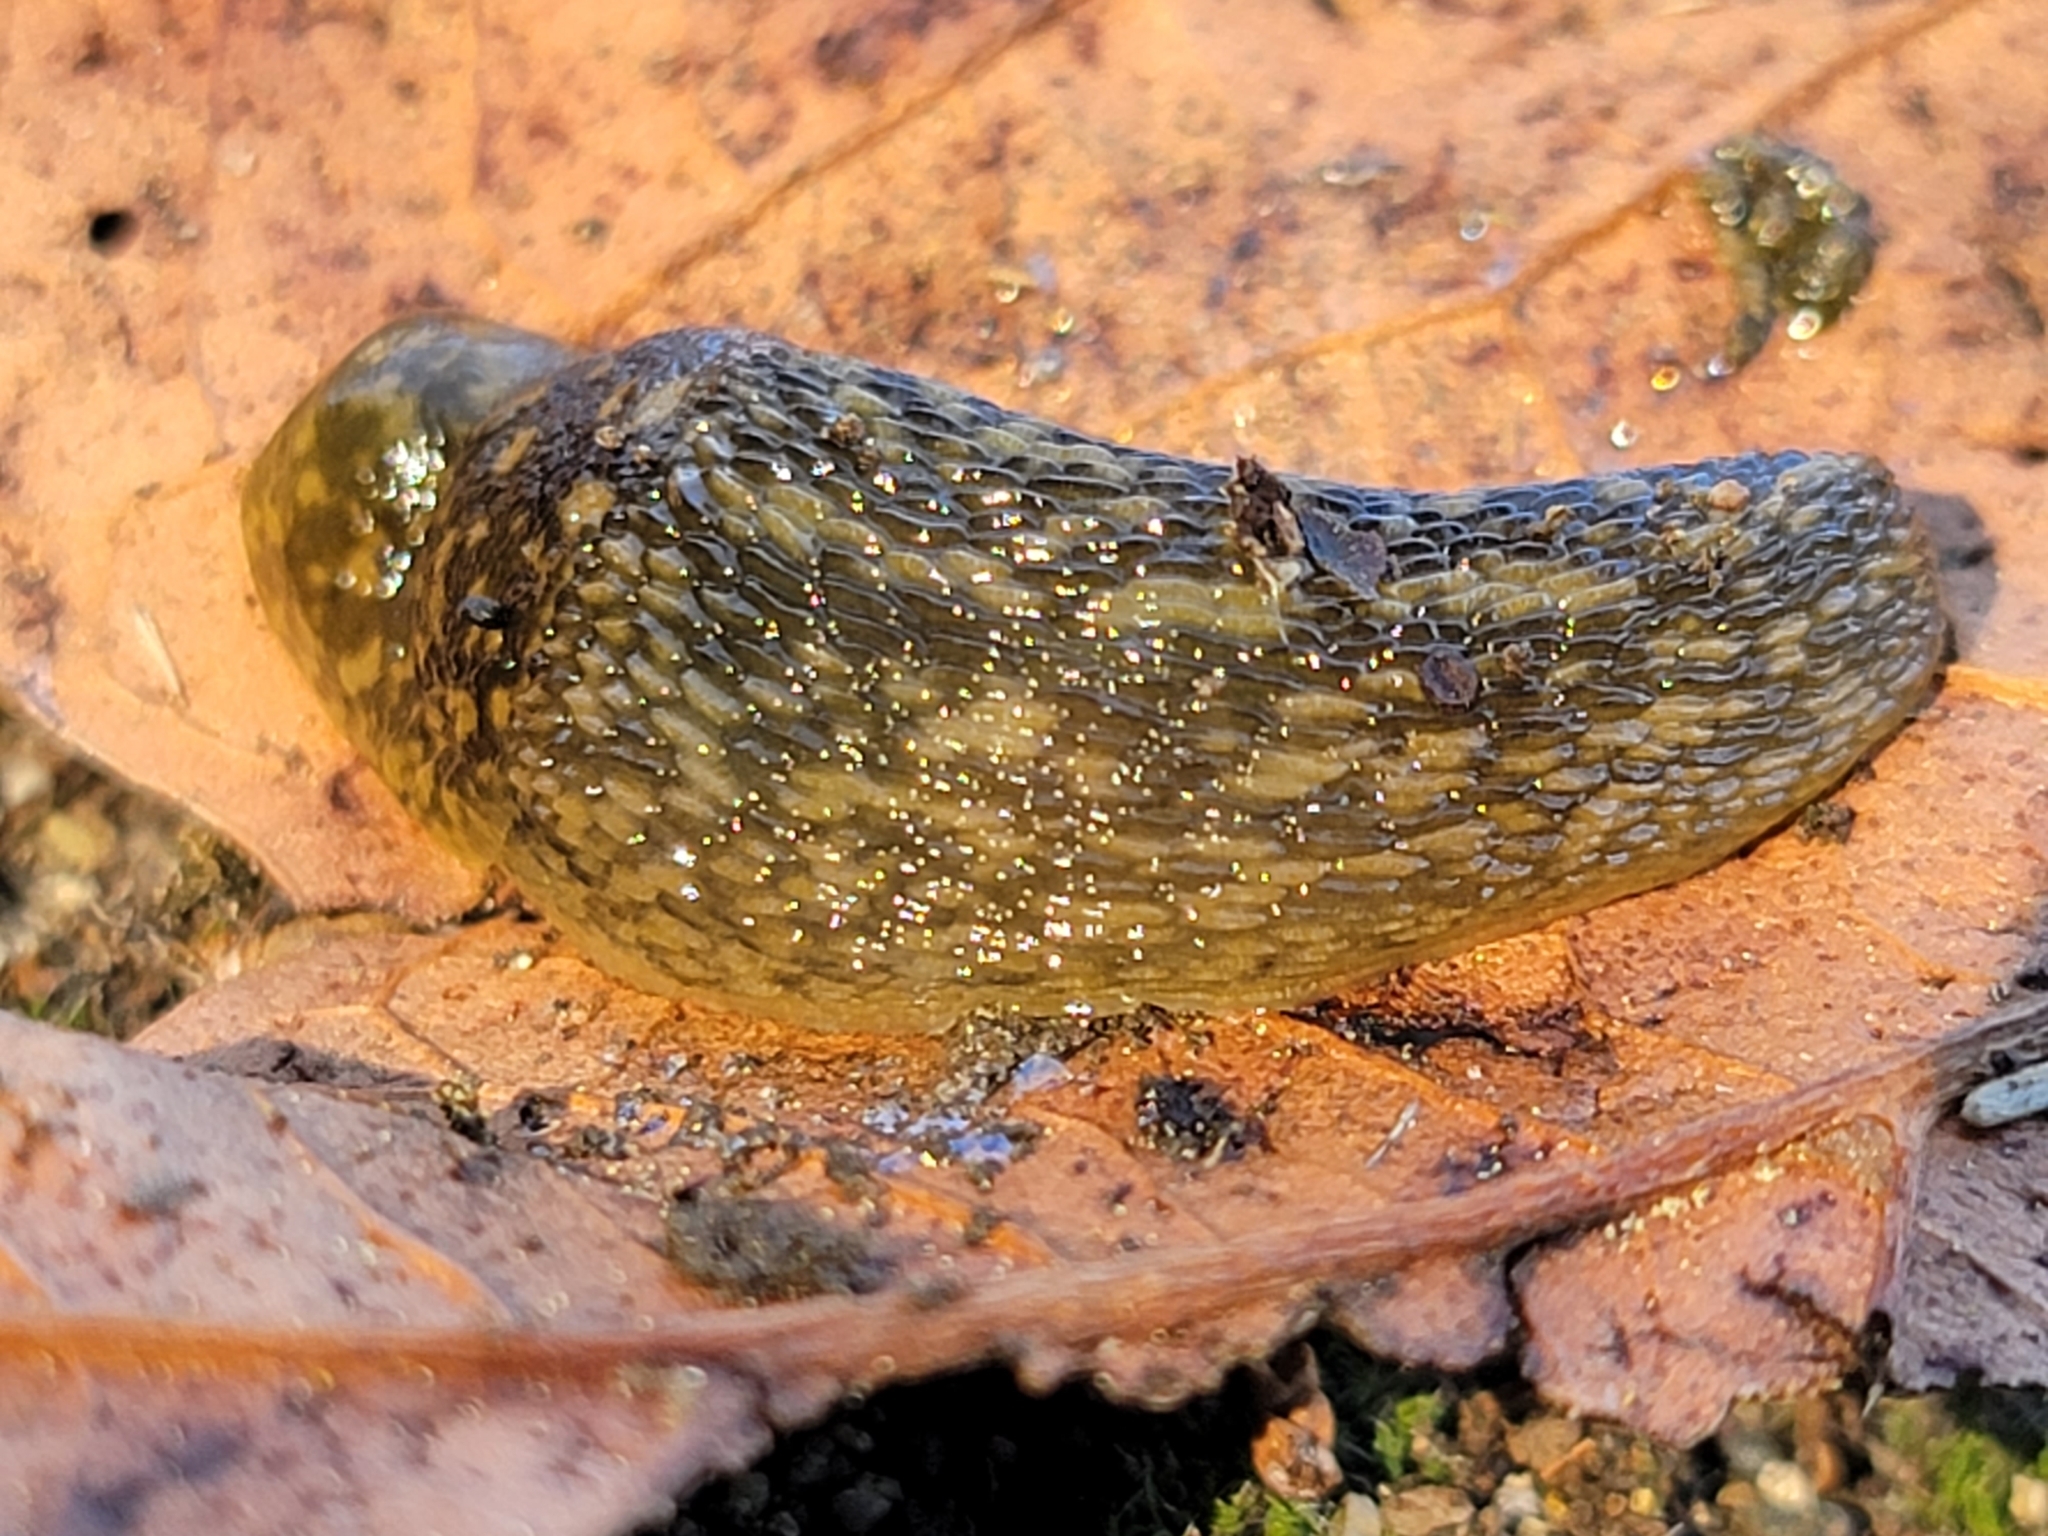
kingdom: Animalia
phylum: Mollusca
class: Gastropoda
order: Stylommatophora
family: Limacidae
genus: Limacus
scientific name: Limacus flavus
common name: Yellow gardenslug
